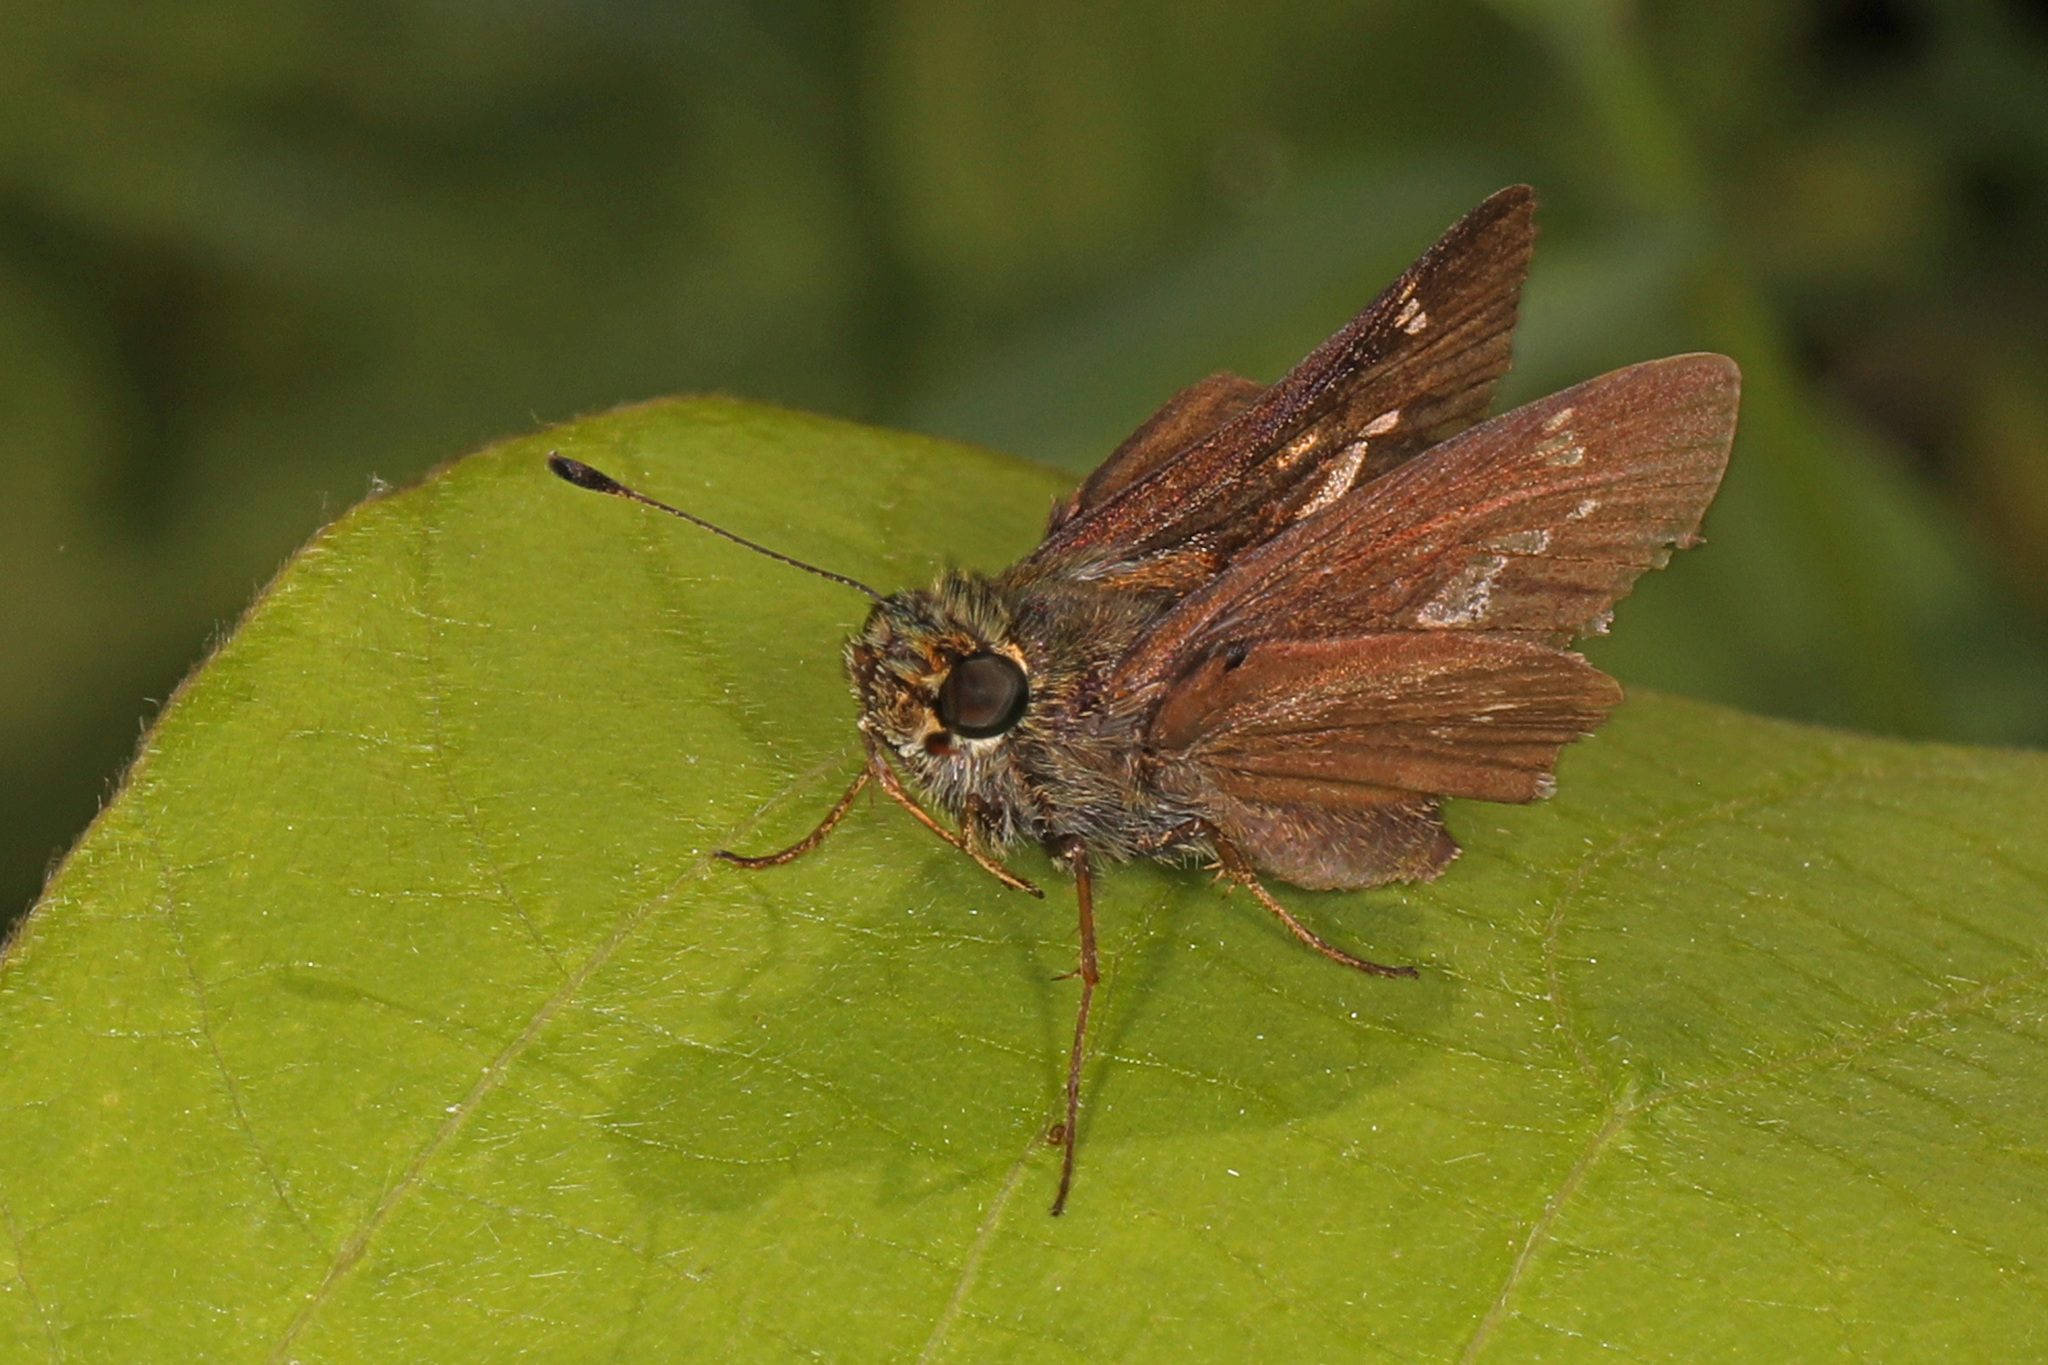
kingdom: Animalia
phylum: Arthropoda
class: Insecta
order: Lepidoptera
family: Hesperiidae
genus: Vernia
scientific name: Vernia verna
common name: Little glassywing
